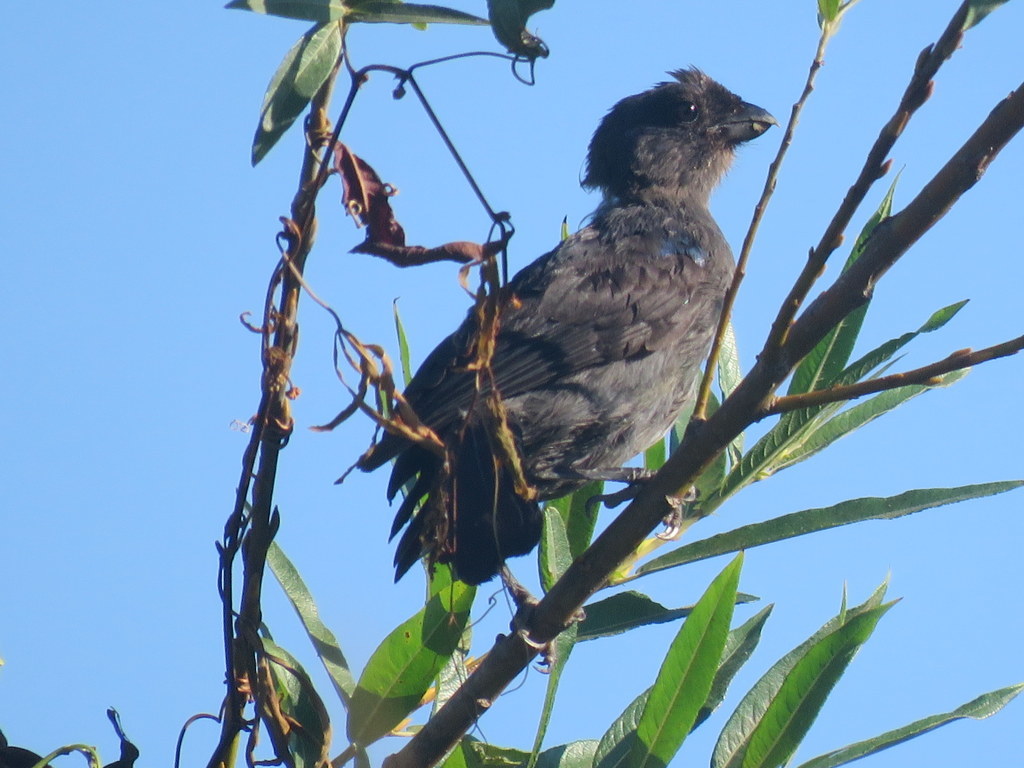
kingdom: Animalia
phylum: Chordata
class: Aves
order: Passeriformes
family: Thraupidae
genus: Stephanophorus
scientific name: Stephanophorus diadematus
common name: Diademed tanager
